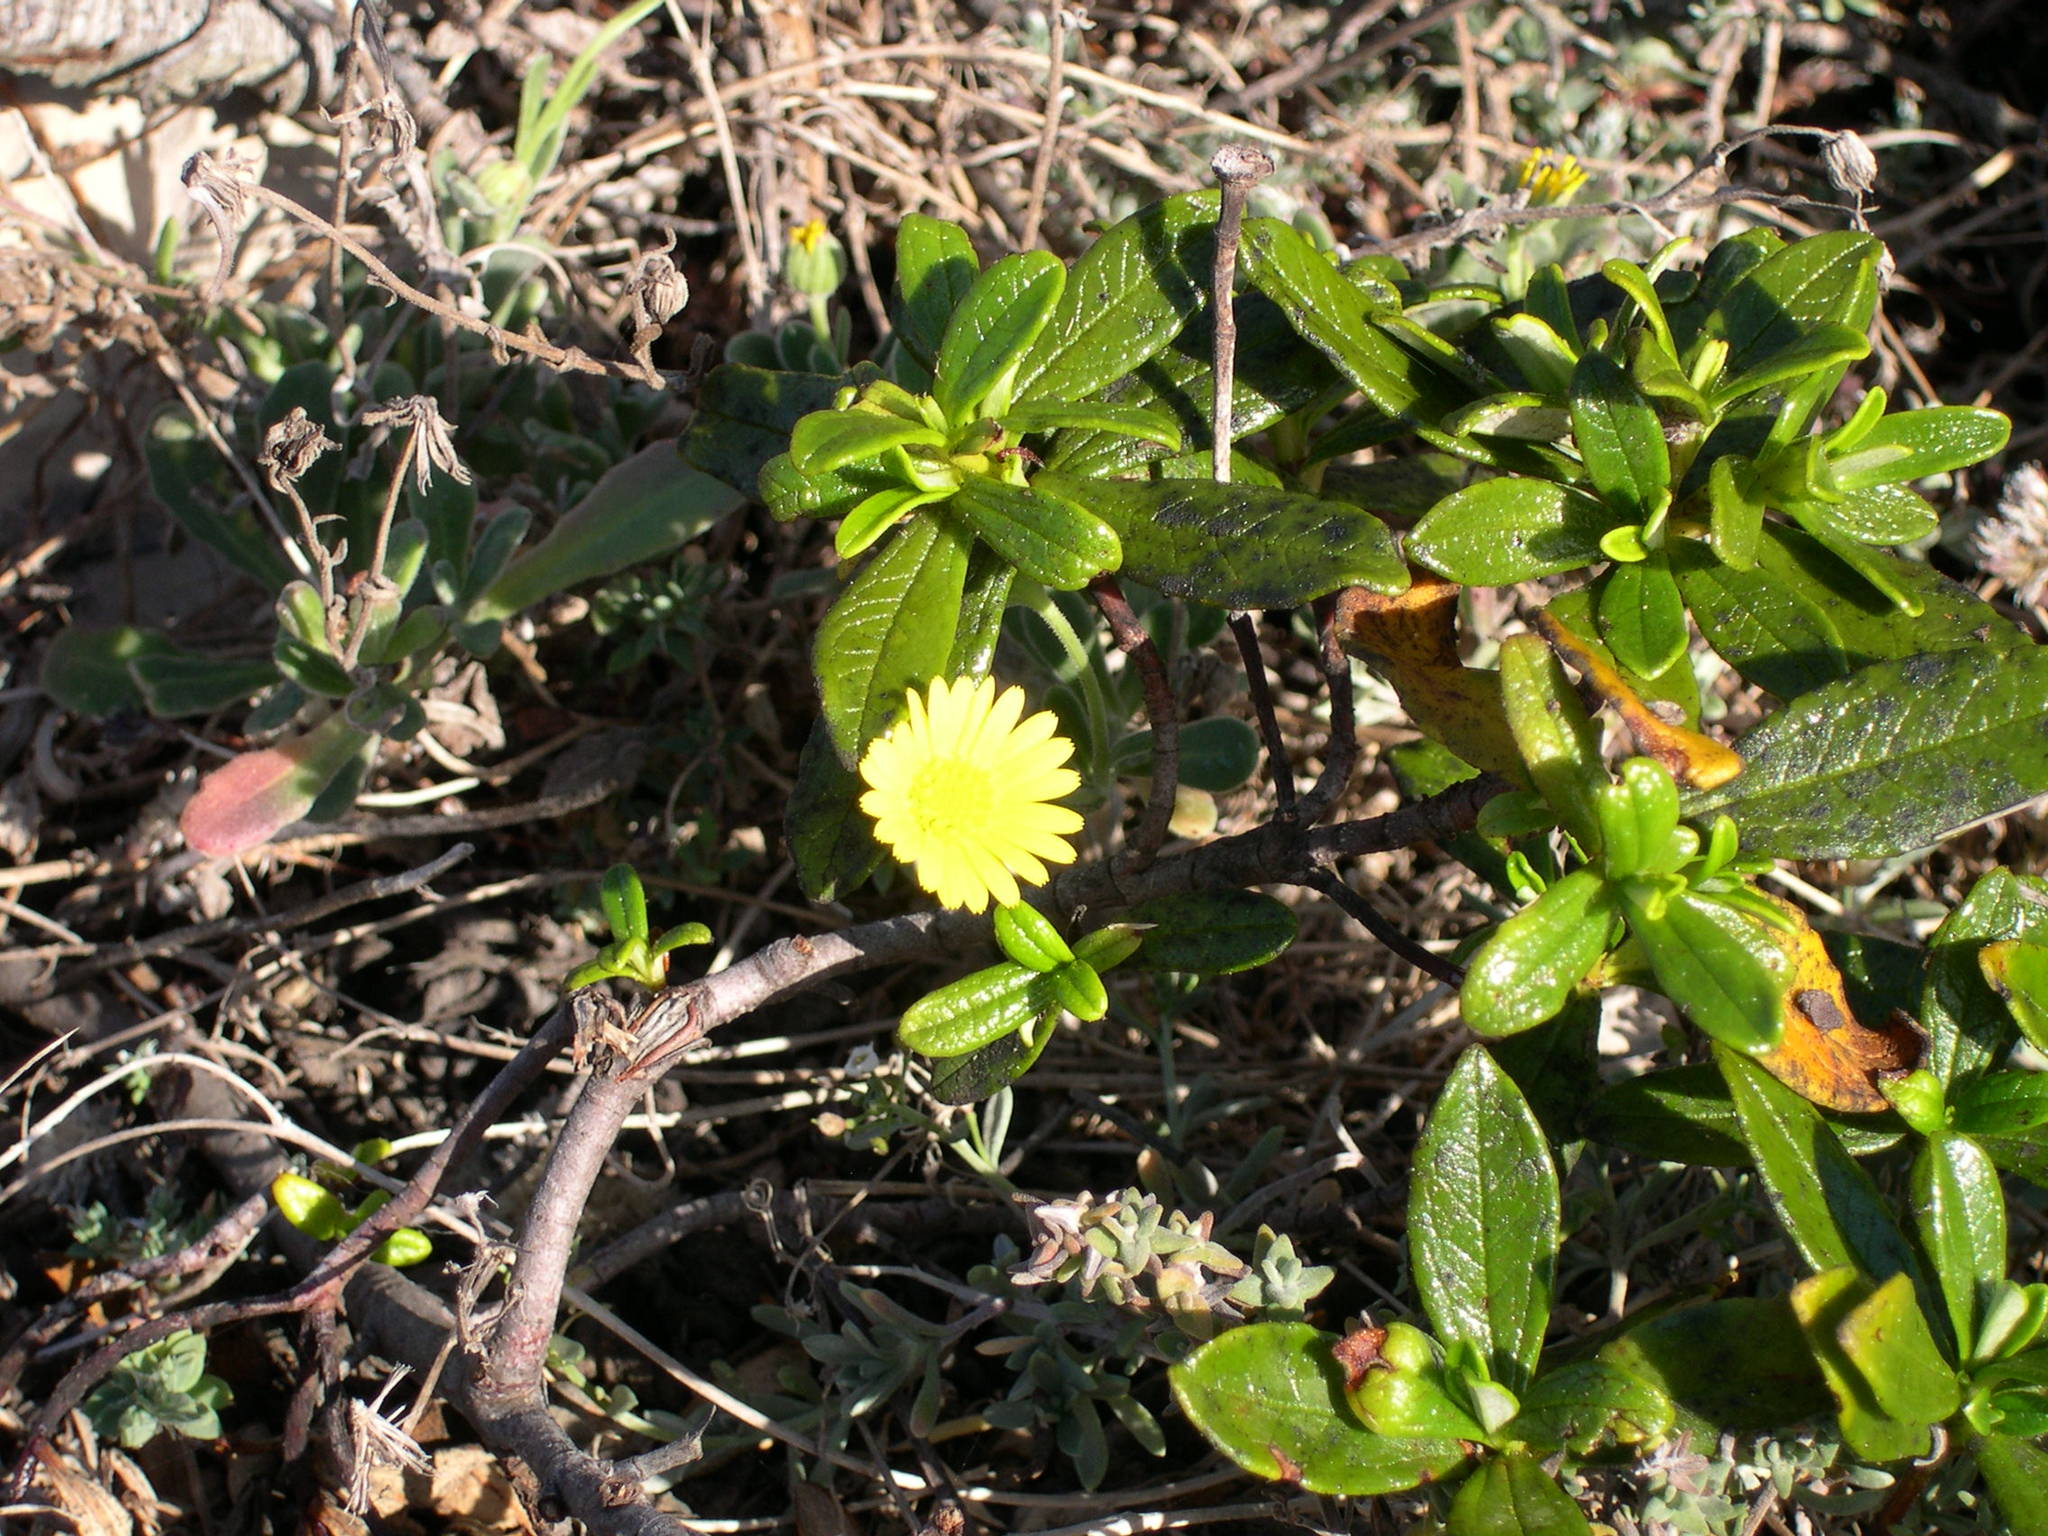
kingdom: Plantae
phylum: Tracheophyta
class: Magnoliopsida
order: Malvales
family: Cistaceae
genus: Cistus
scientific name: Cistus ladanifer
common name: Common gum cistus
